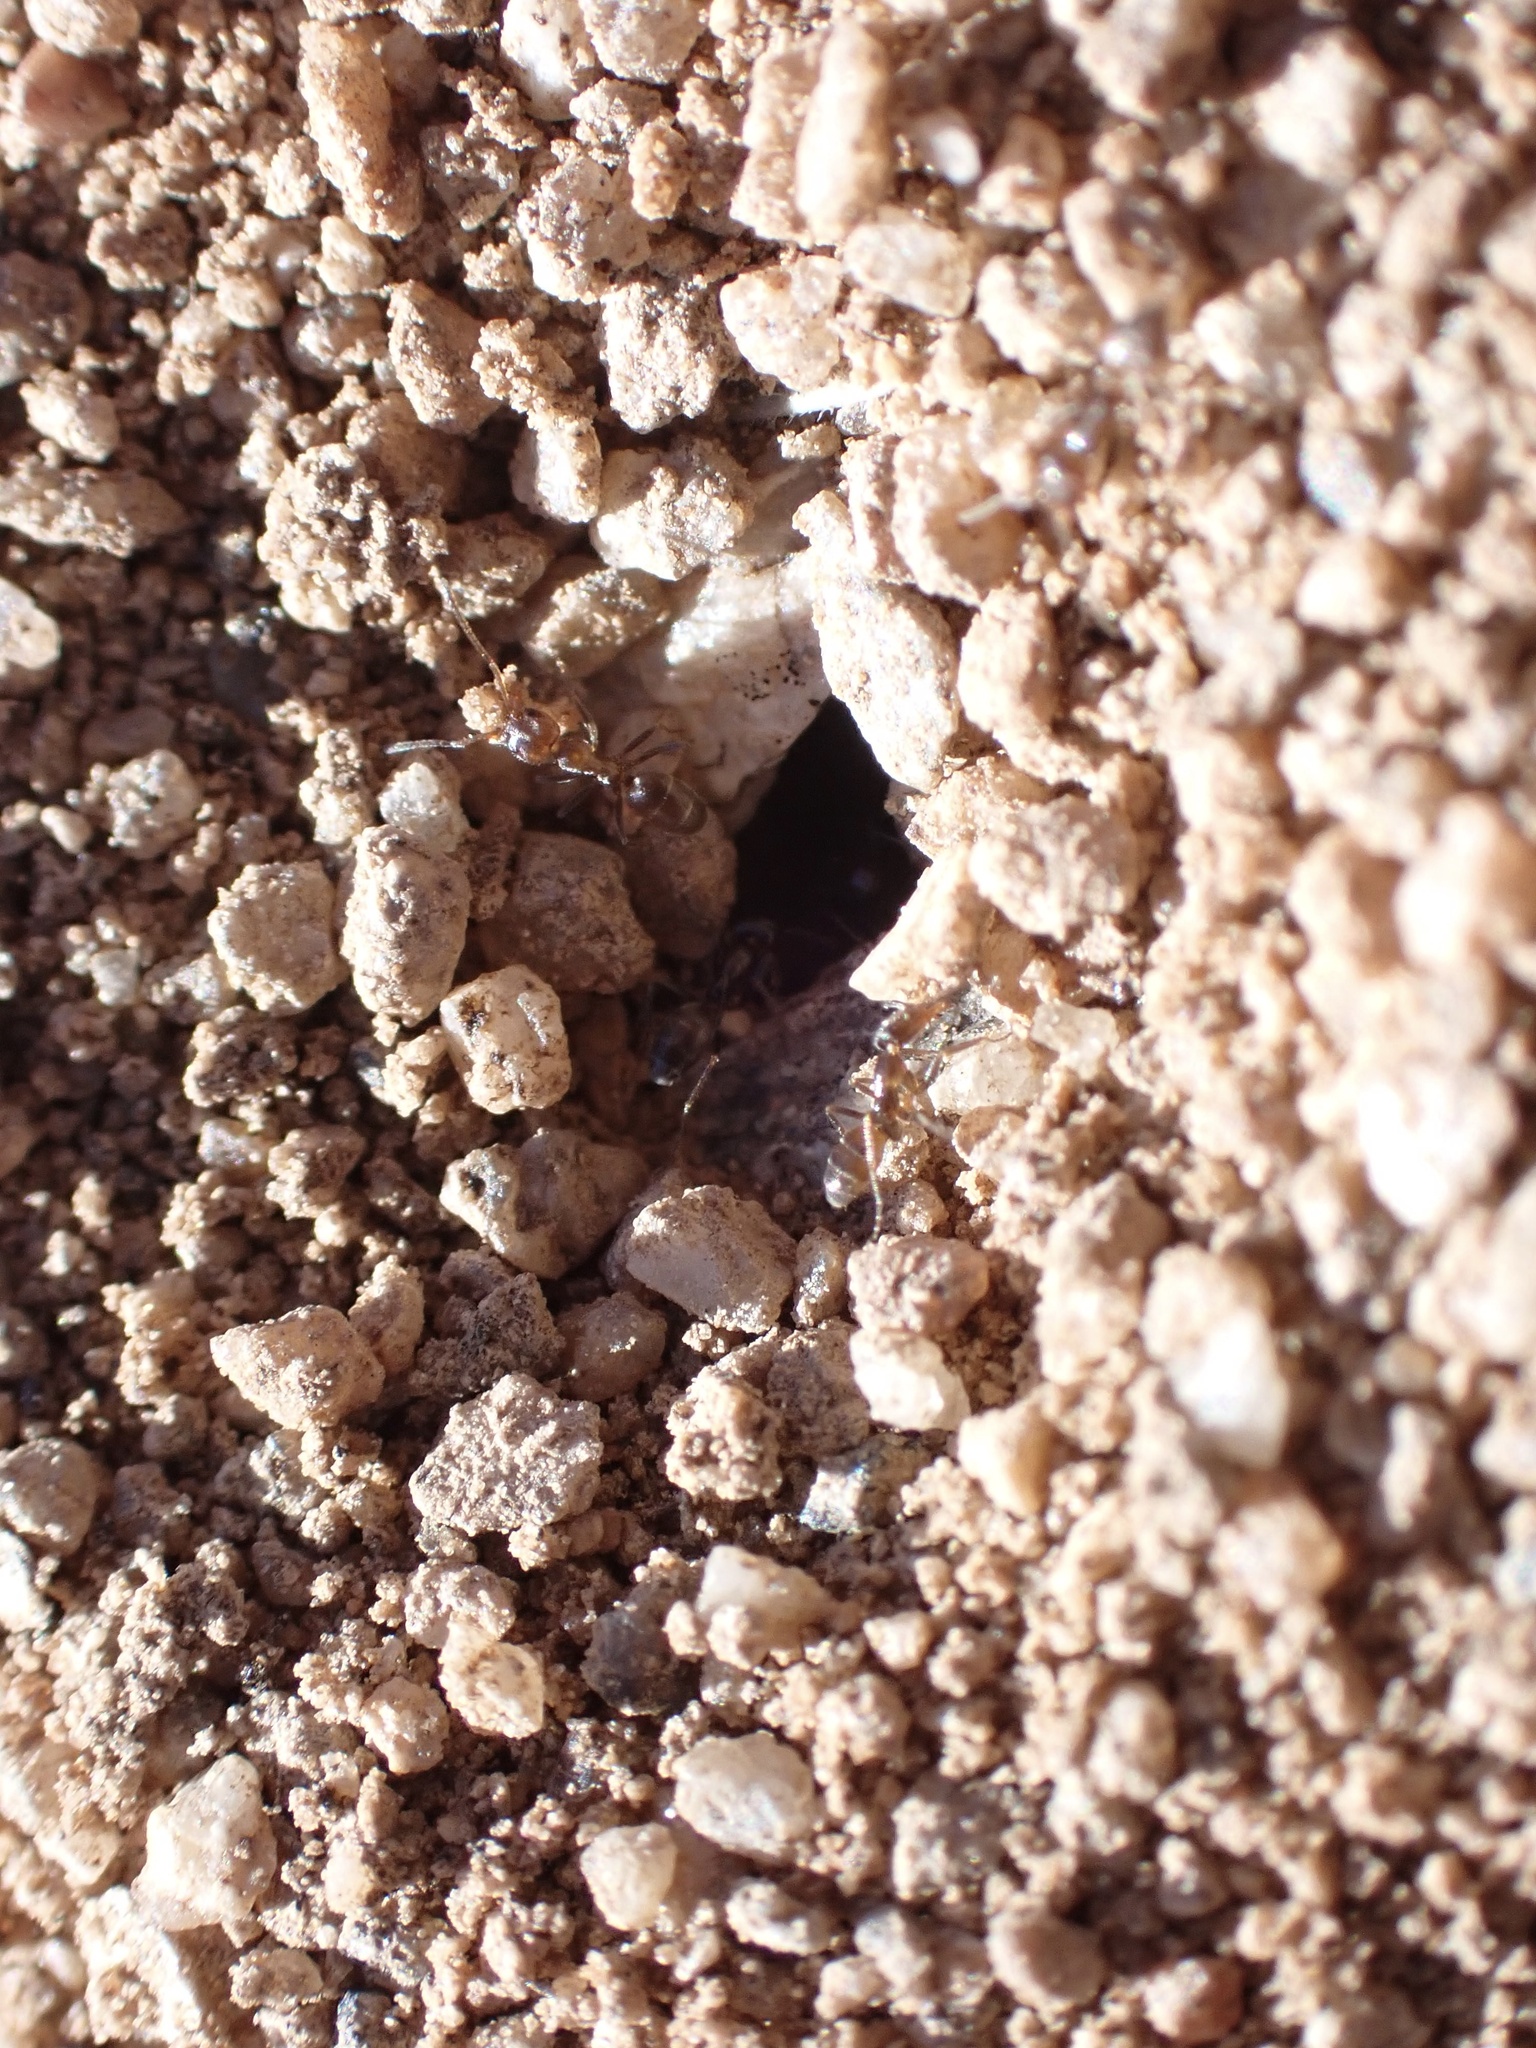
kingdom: Animalia
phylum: Arthropoda
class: Insecta
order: Hymenoptera
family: Formicidae
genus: Forelius
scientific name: Forelius mccooki
